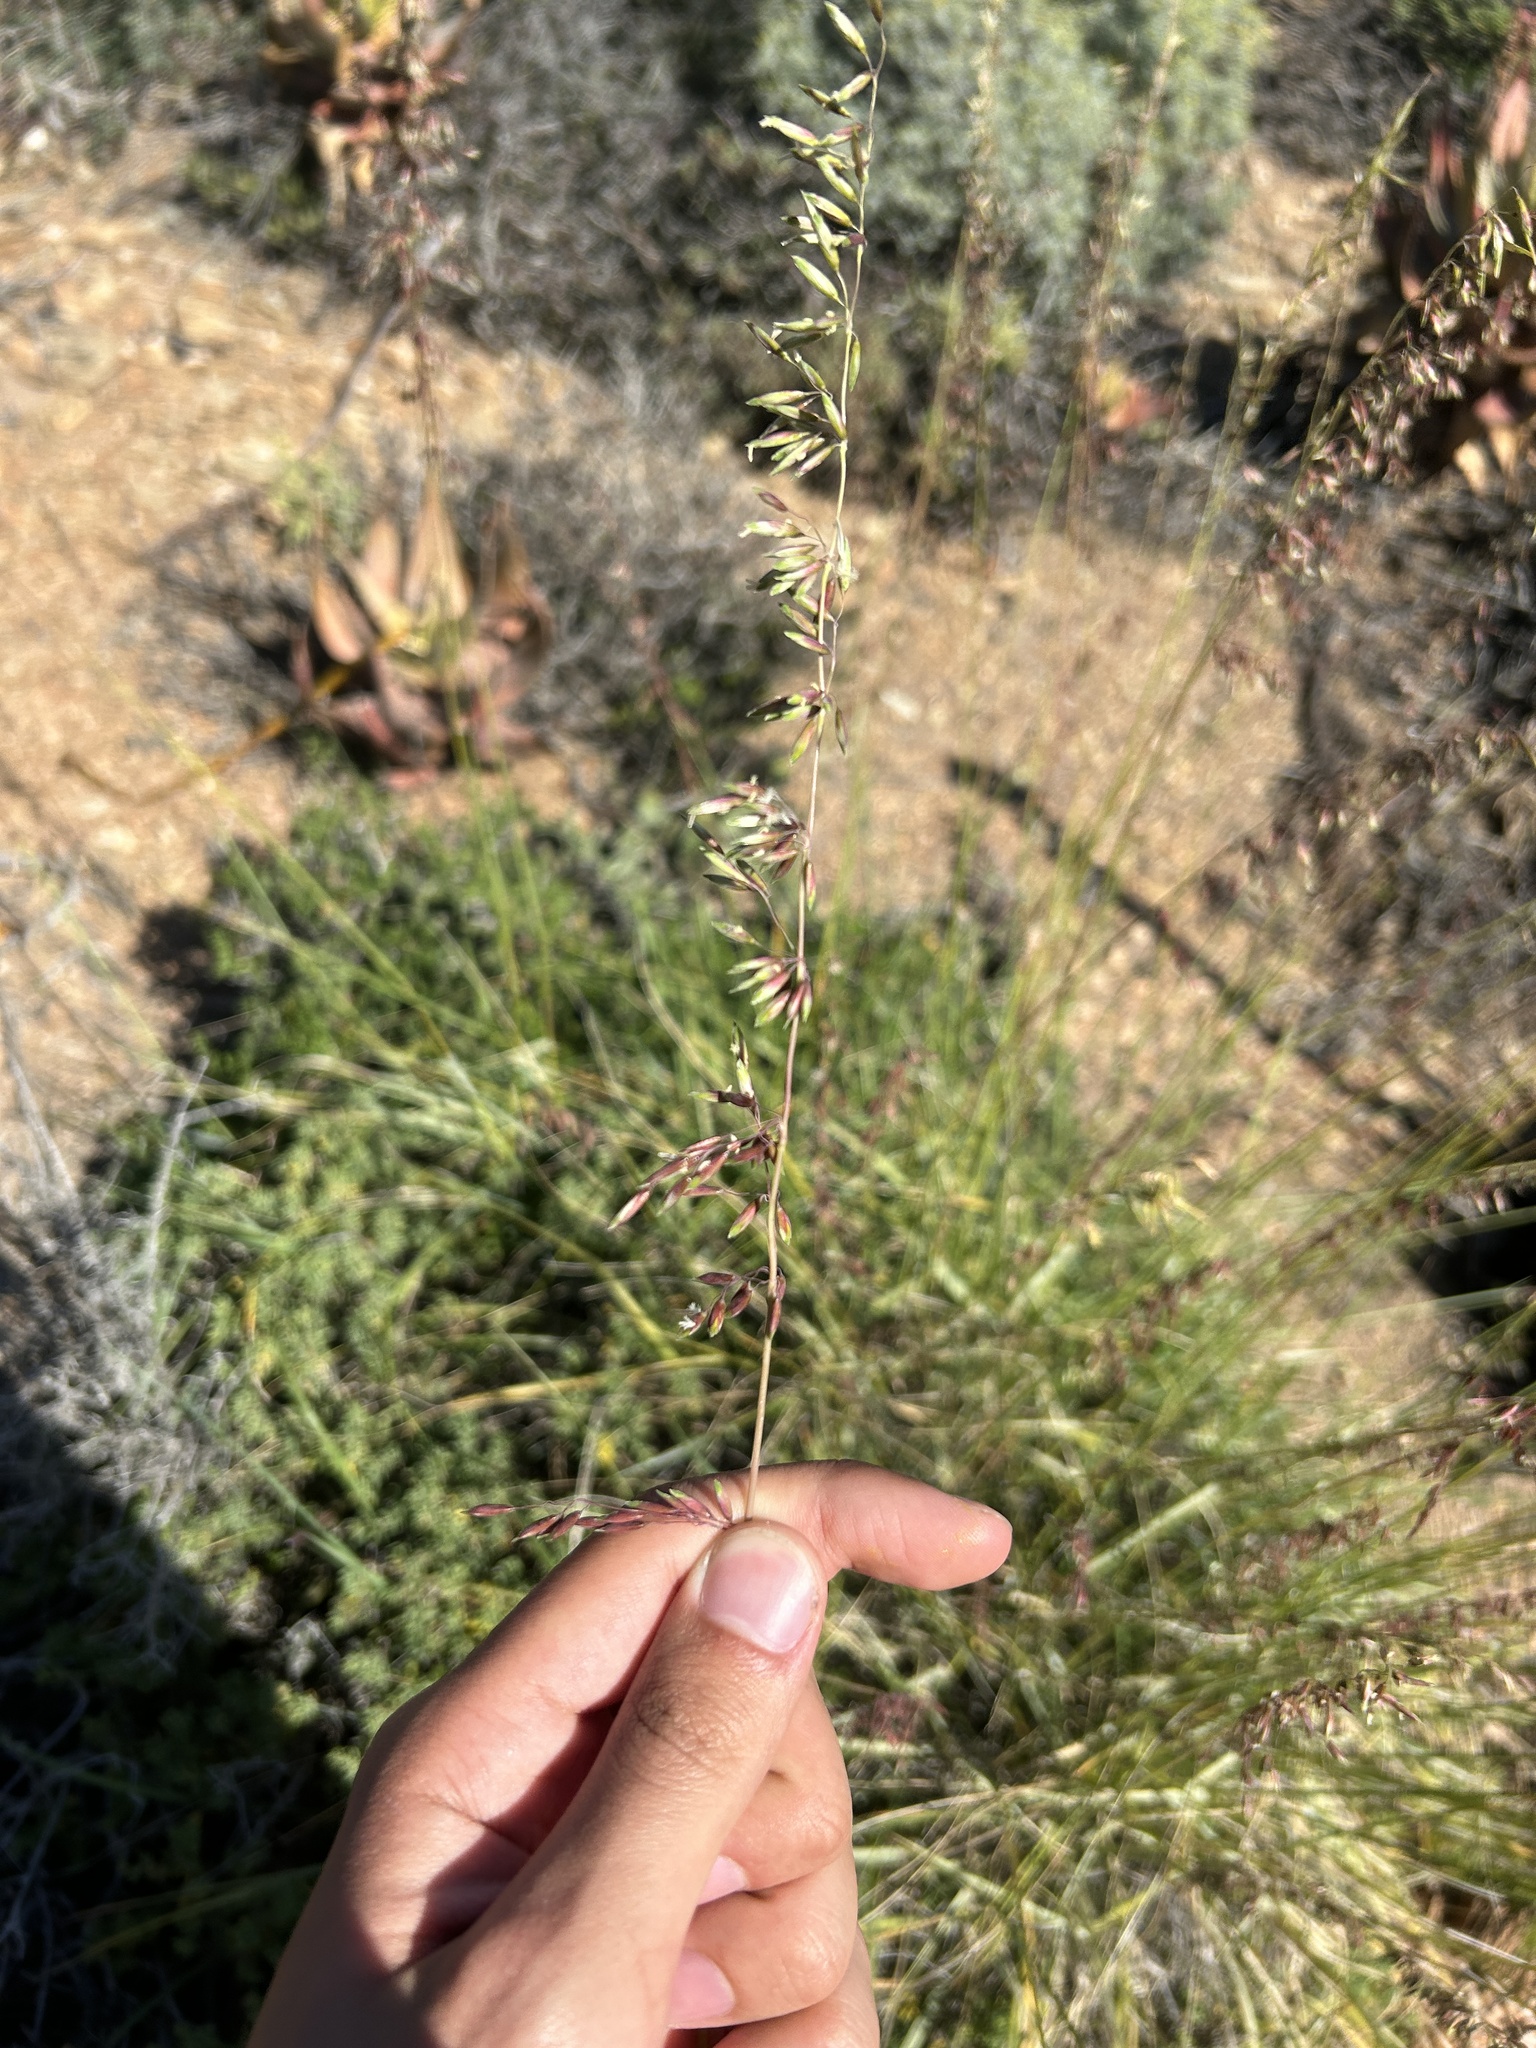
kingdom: Plantae
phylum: Tracheophyta
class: Liliopsida
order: Poales
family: Poaceae
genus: Ehrharta
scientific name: Ehrharta calycina
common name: Perennial veldtgrass
